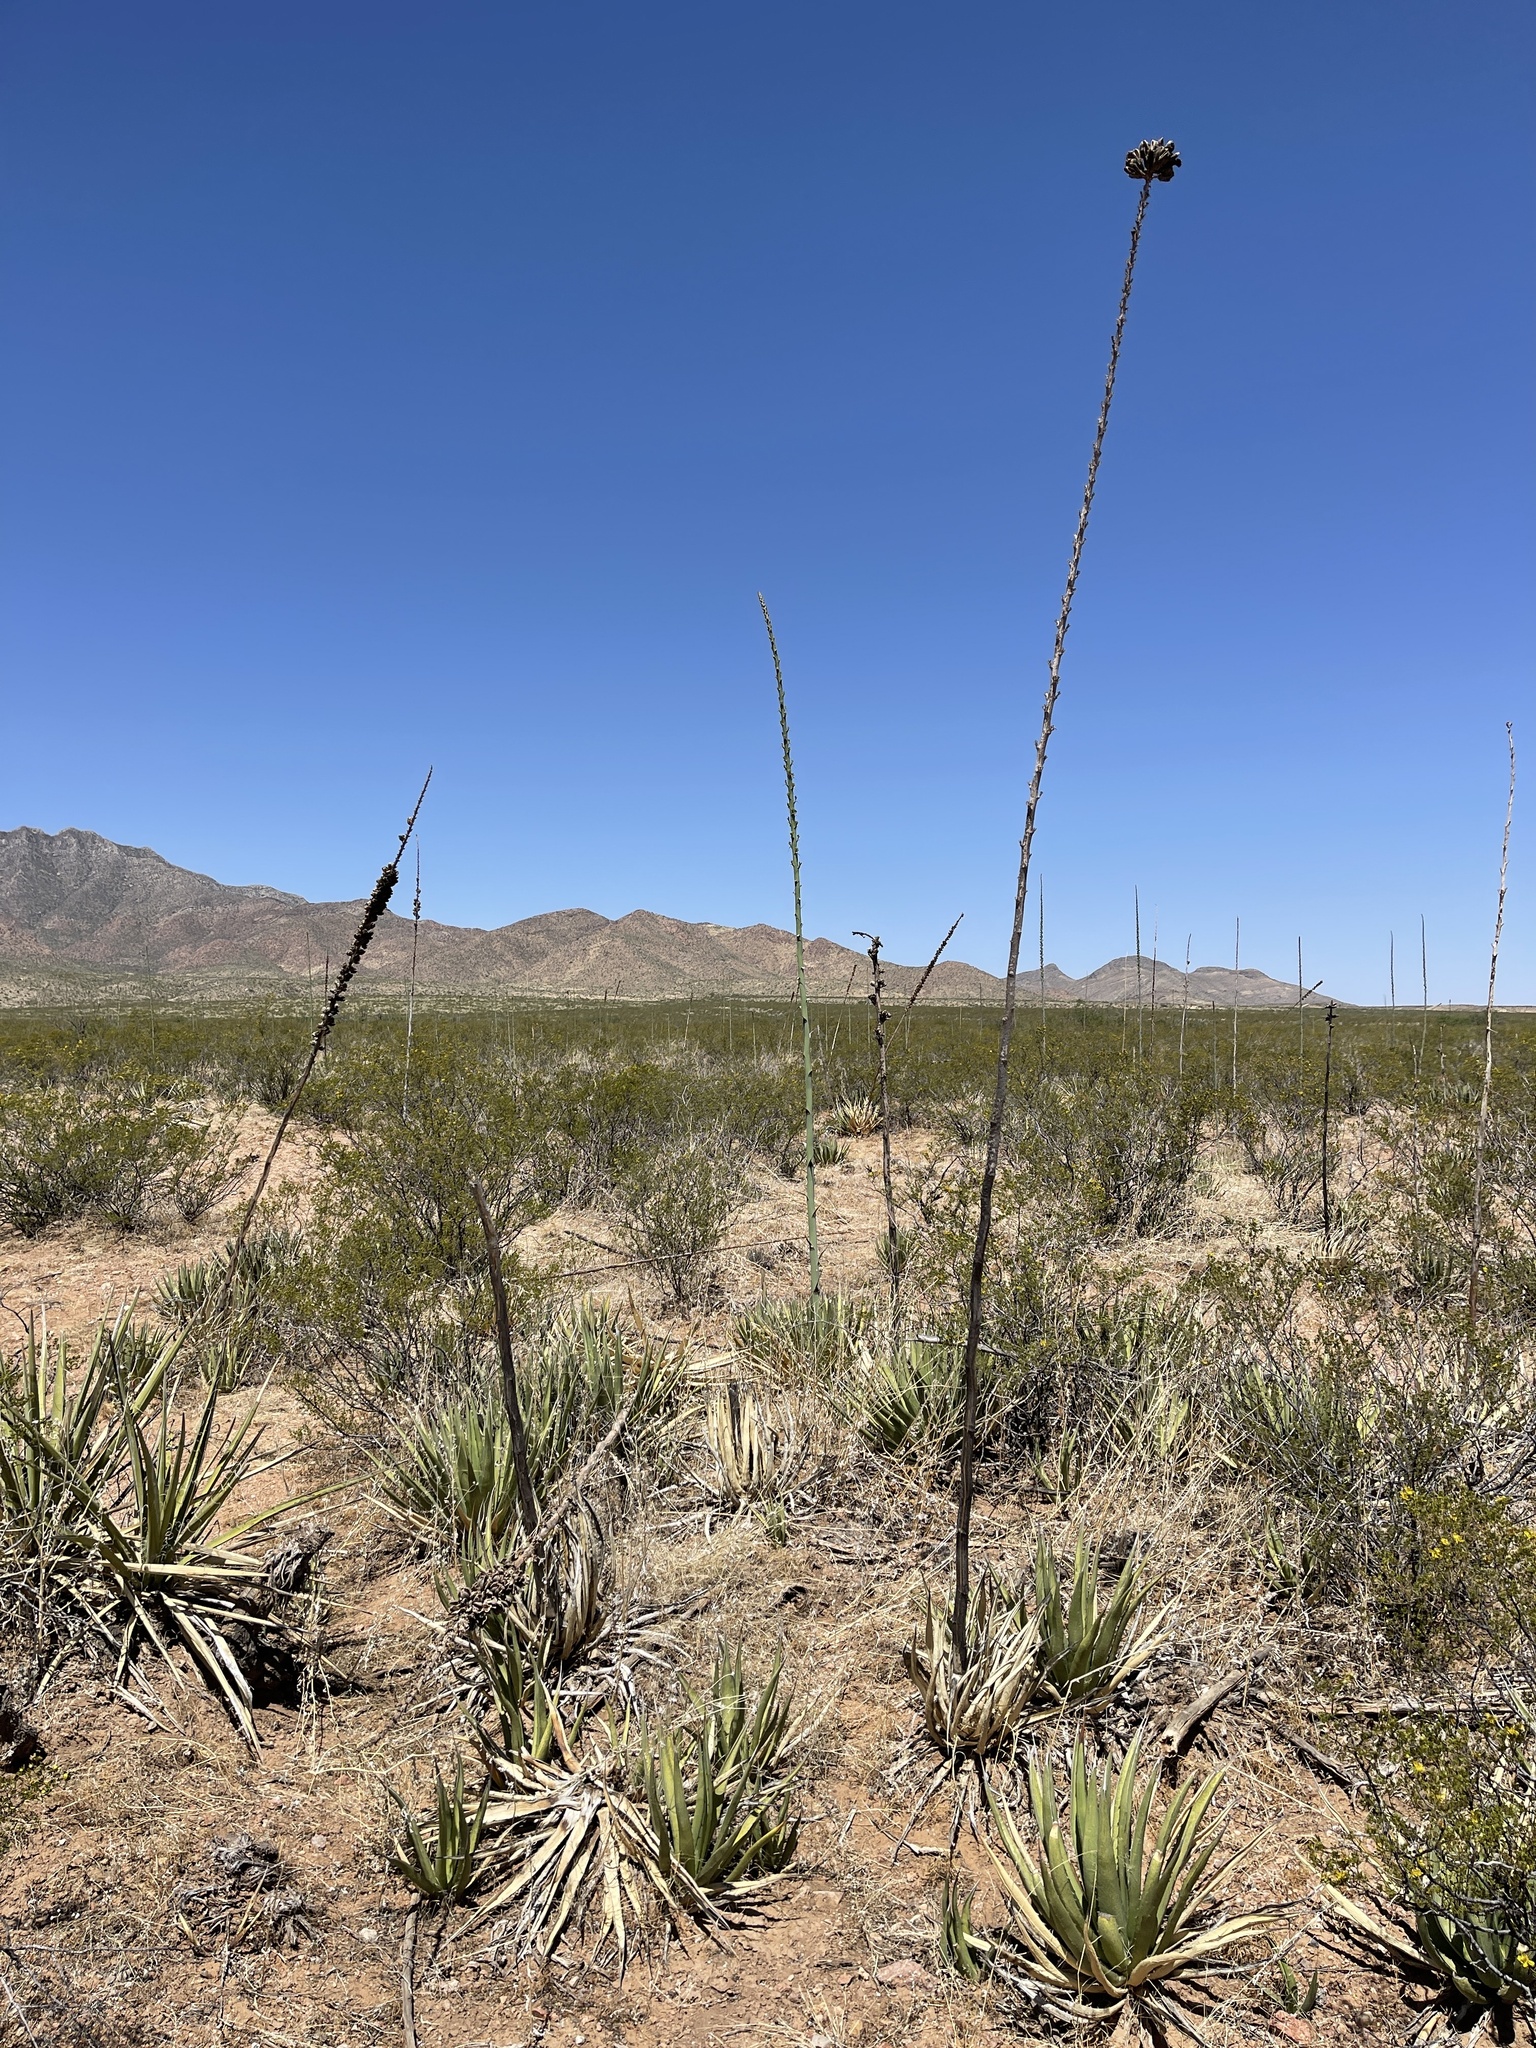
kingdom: Plantae
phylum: Tracheophyta
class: Liliopsida
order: Asparagales
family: Asparagaceae
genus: Agave
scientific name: Agave lechuguilla
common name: Lecheguilla agave
